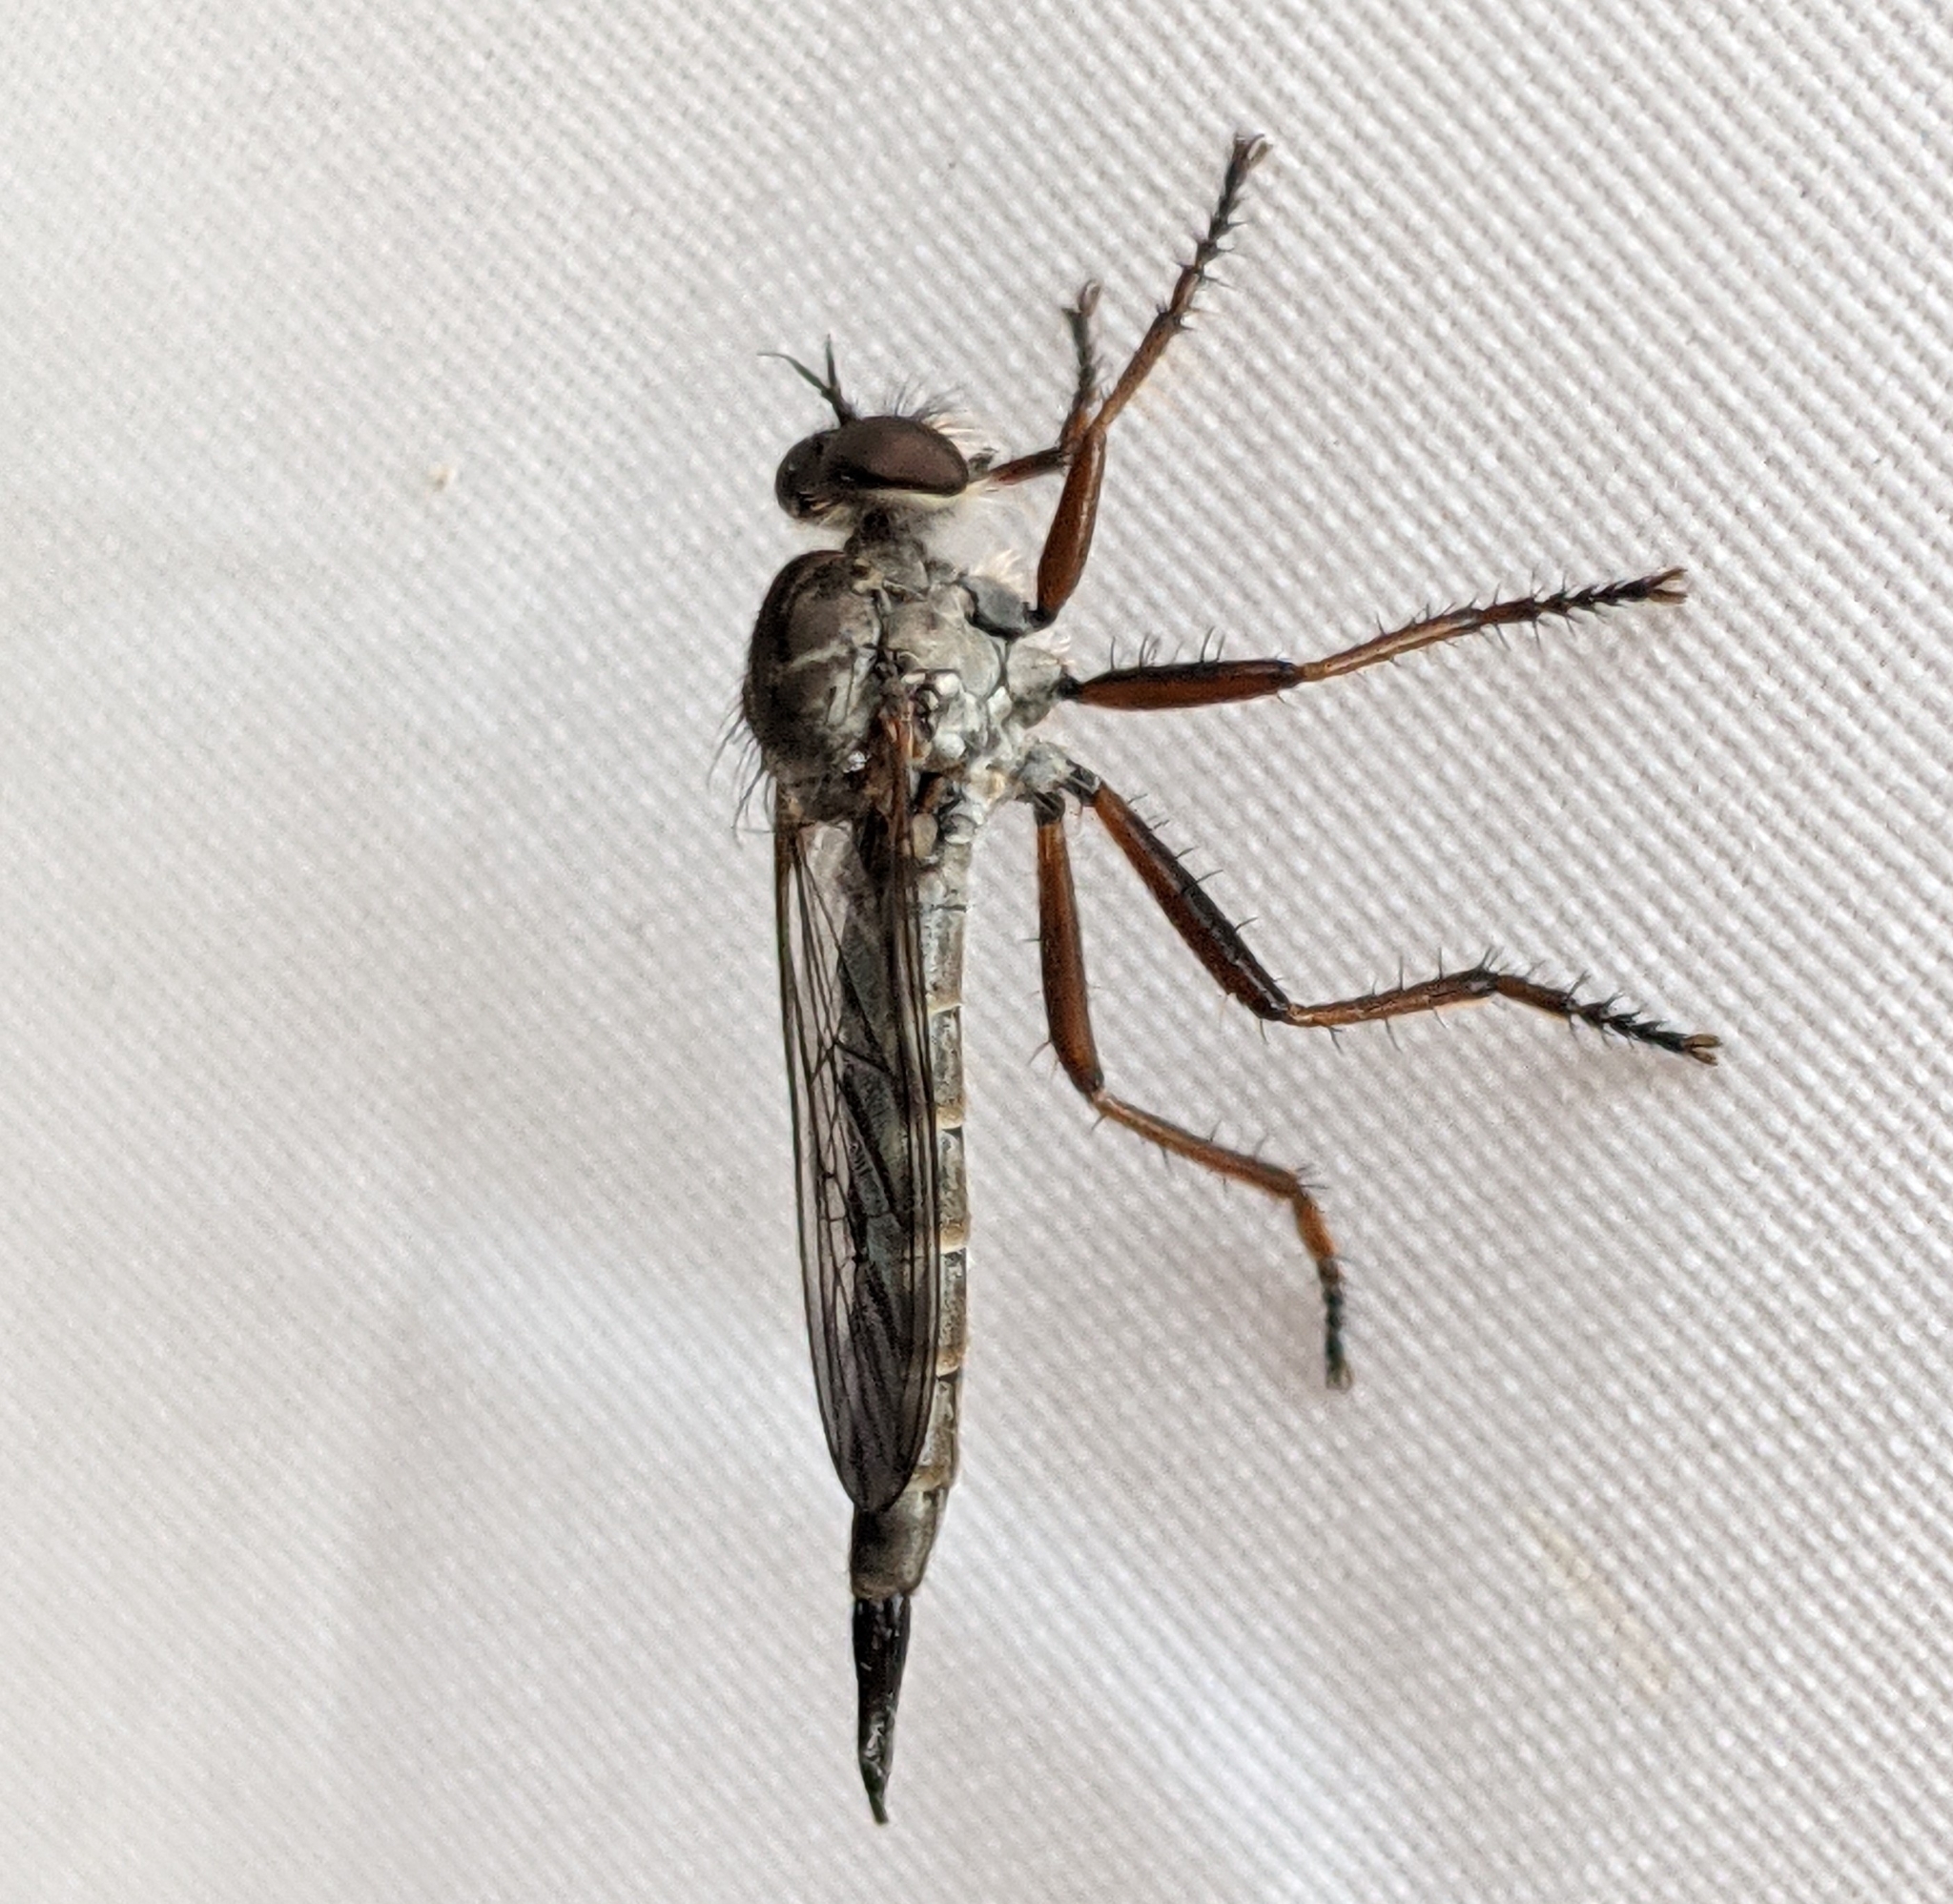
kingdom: Animalia
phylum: Arthropoda
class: Insecta
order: Diptera
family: Asilidae
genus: Neomochtherus
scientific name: Neomochtherus willistoni
